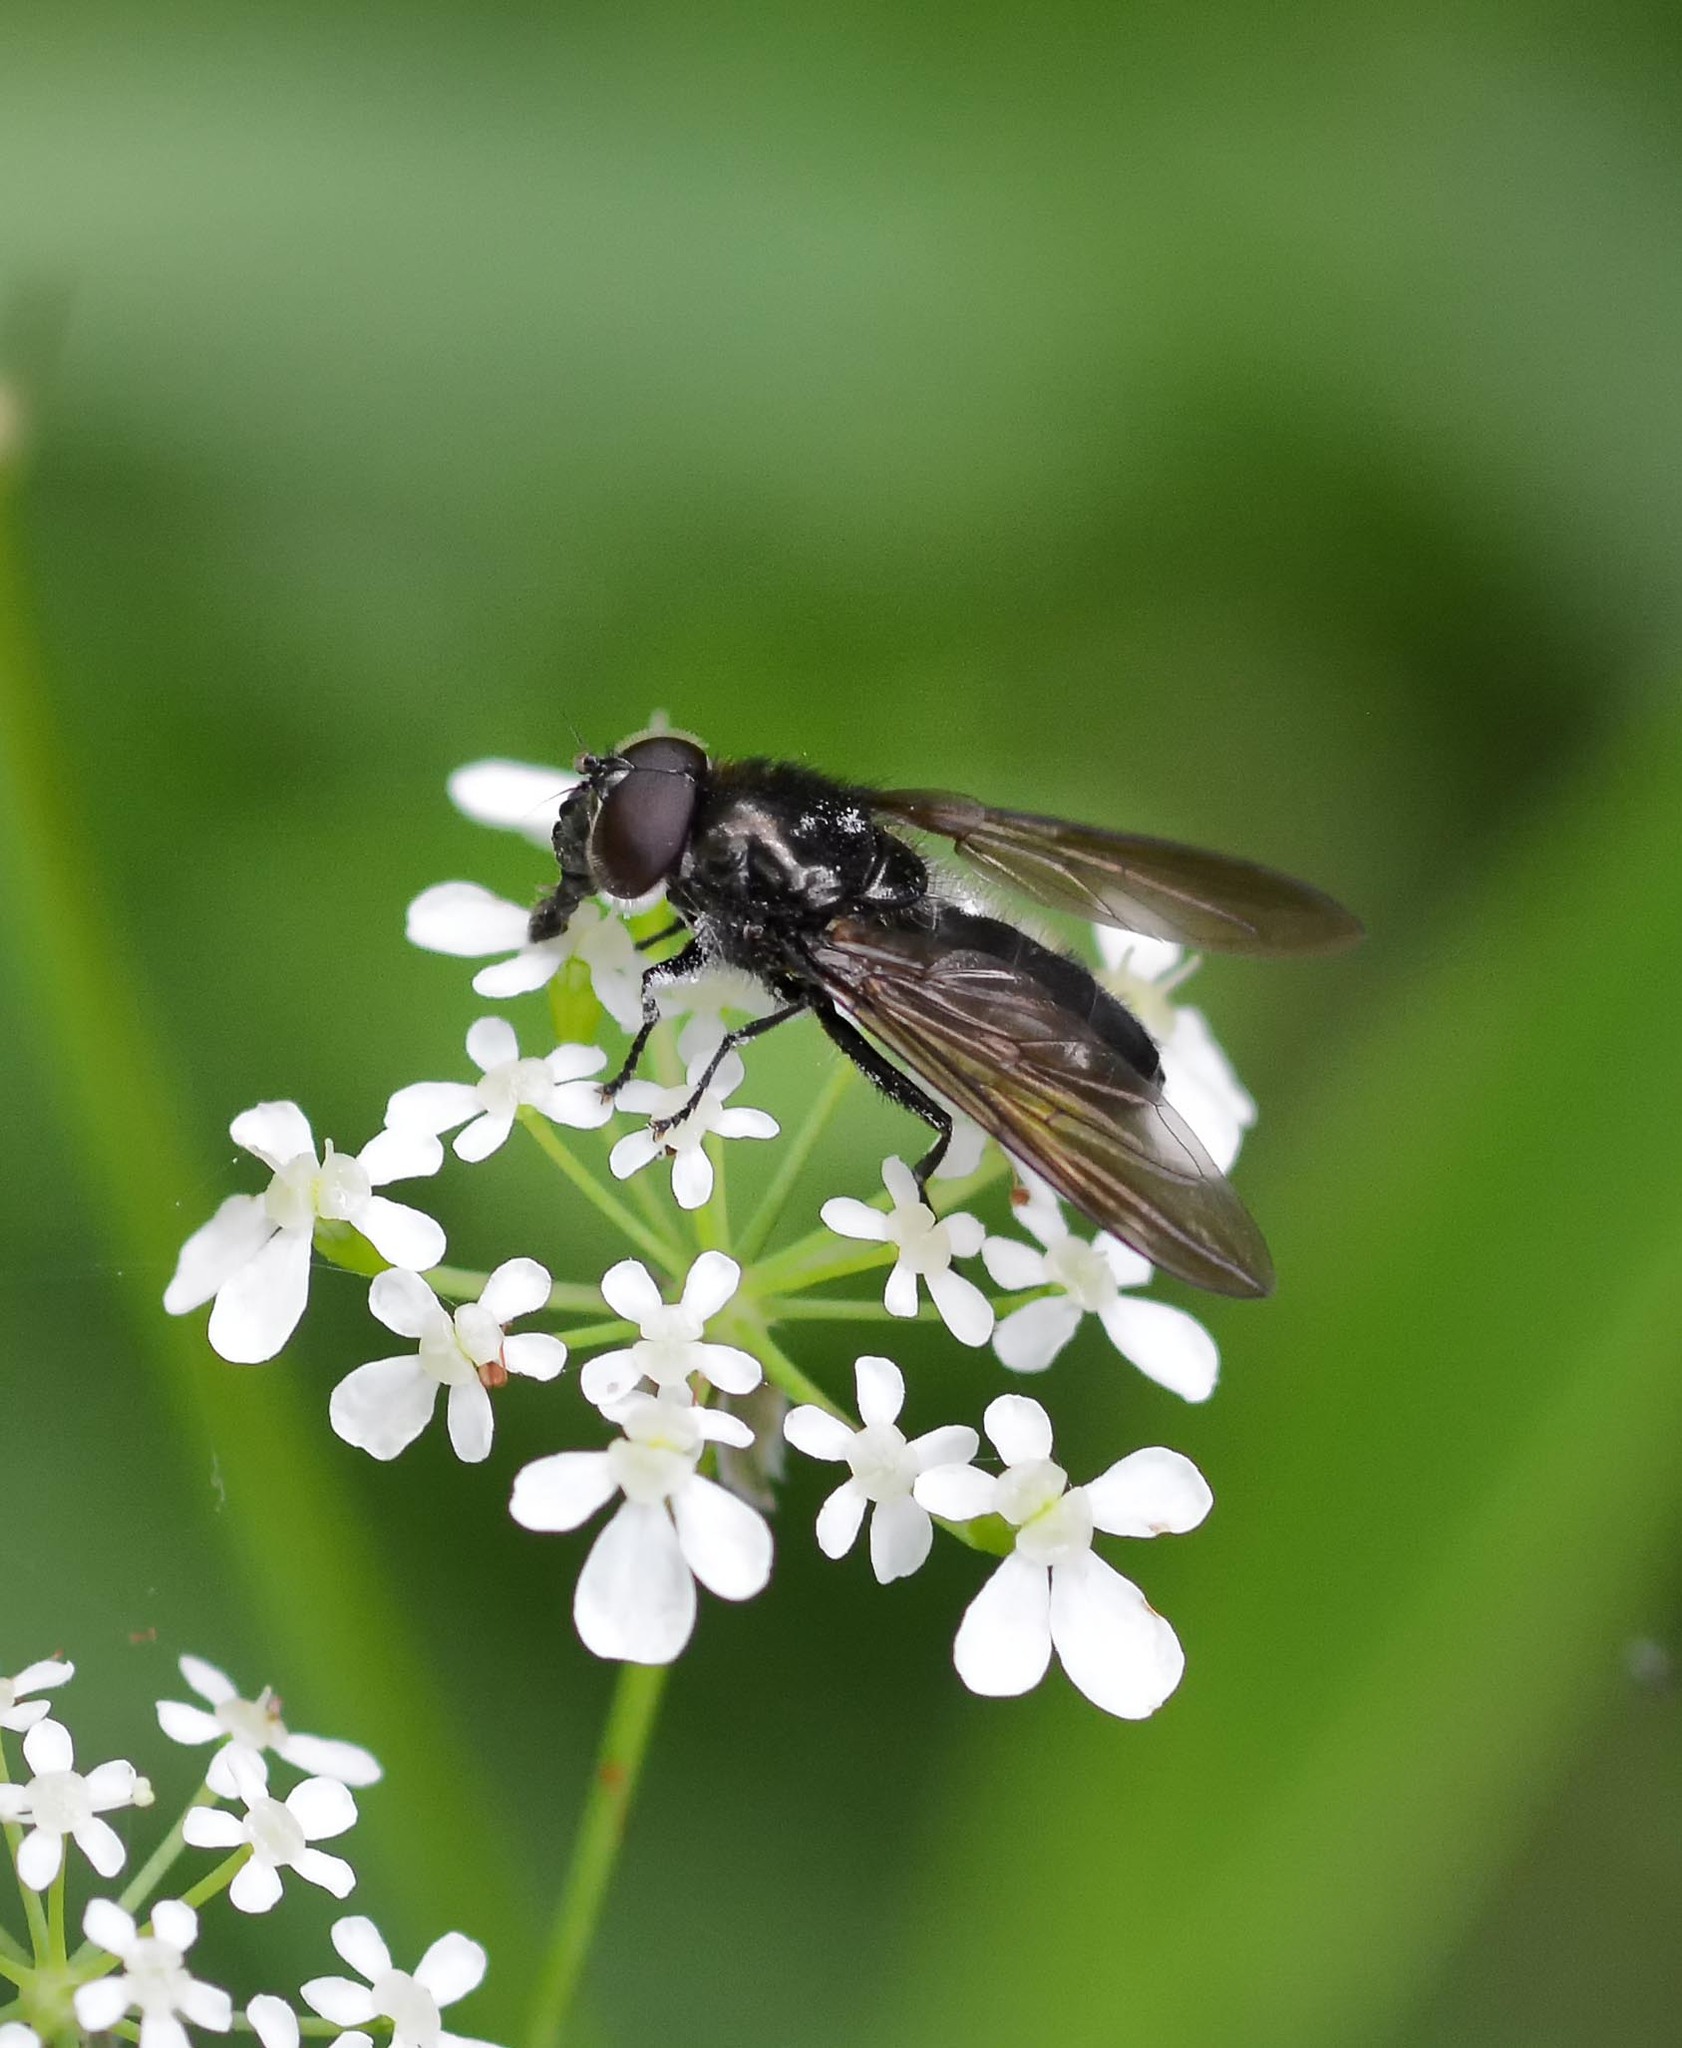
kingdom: Animalia
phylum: Arthropoda
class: Insecta
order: Diptera
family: Syrphidae
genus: Cheilosia
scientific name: Cheilosia
